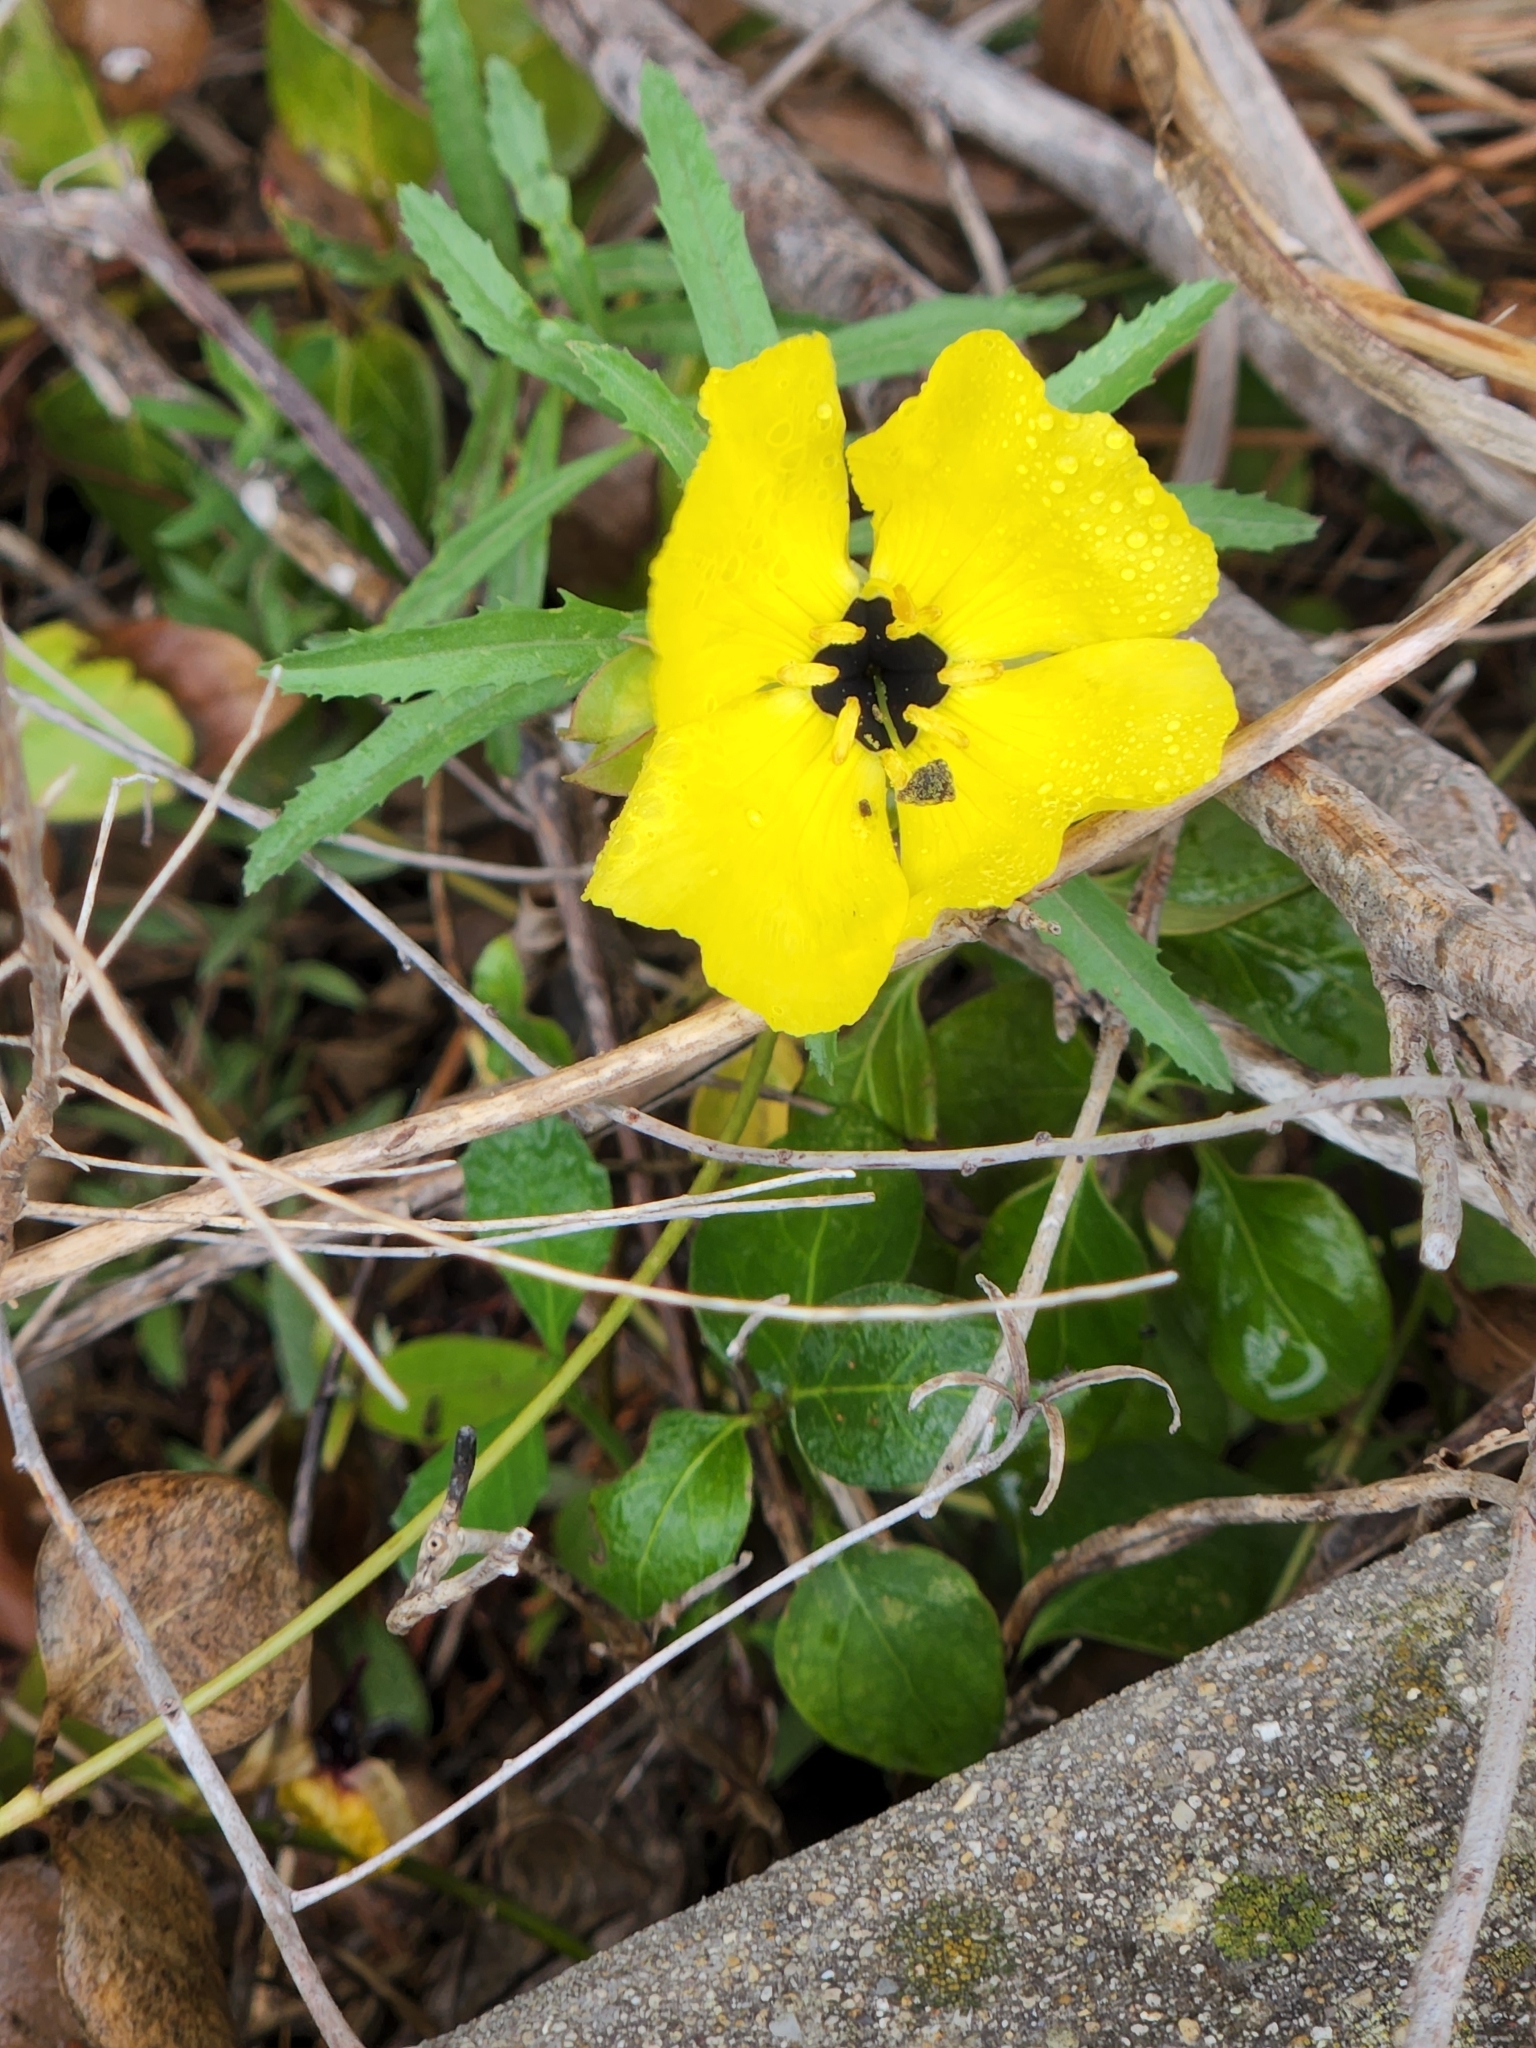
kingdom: Plantae
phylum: Tracheophyta
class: Magnoliopsida
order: Myrtales
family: Onagraceae
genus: Oenothera
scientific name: Oenothera
